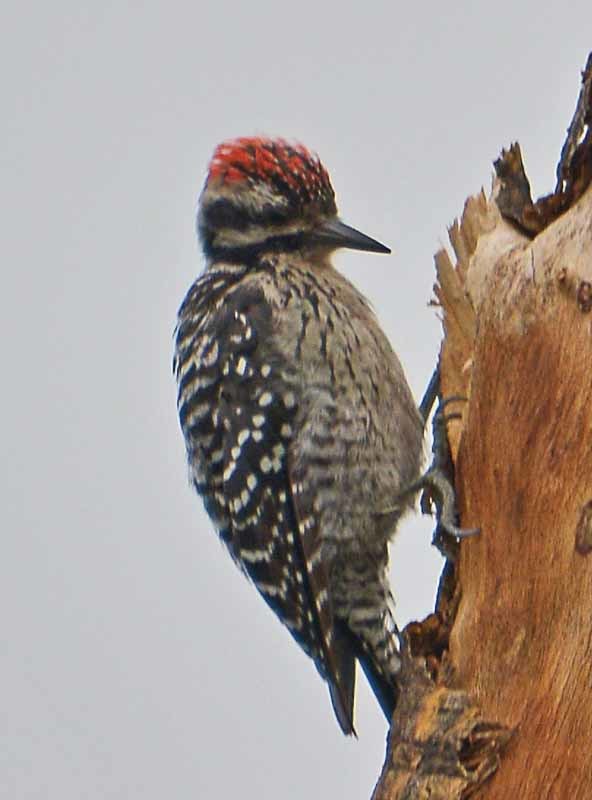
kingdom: Animalia
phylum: Chordata
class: Aves
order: Piciformes
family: Picidae
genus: Dryobates
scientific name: Dryobates scalaris
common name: Ladder-backed woodpecker
